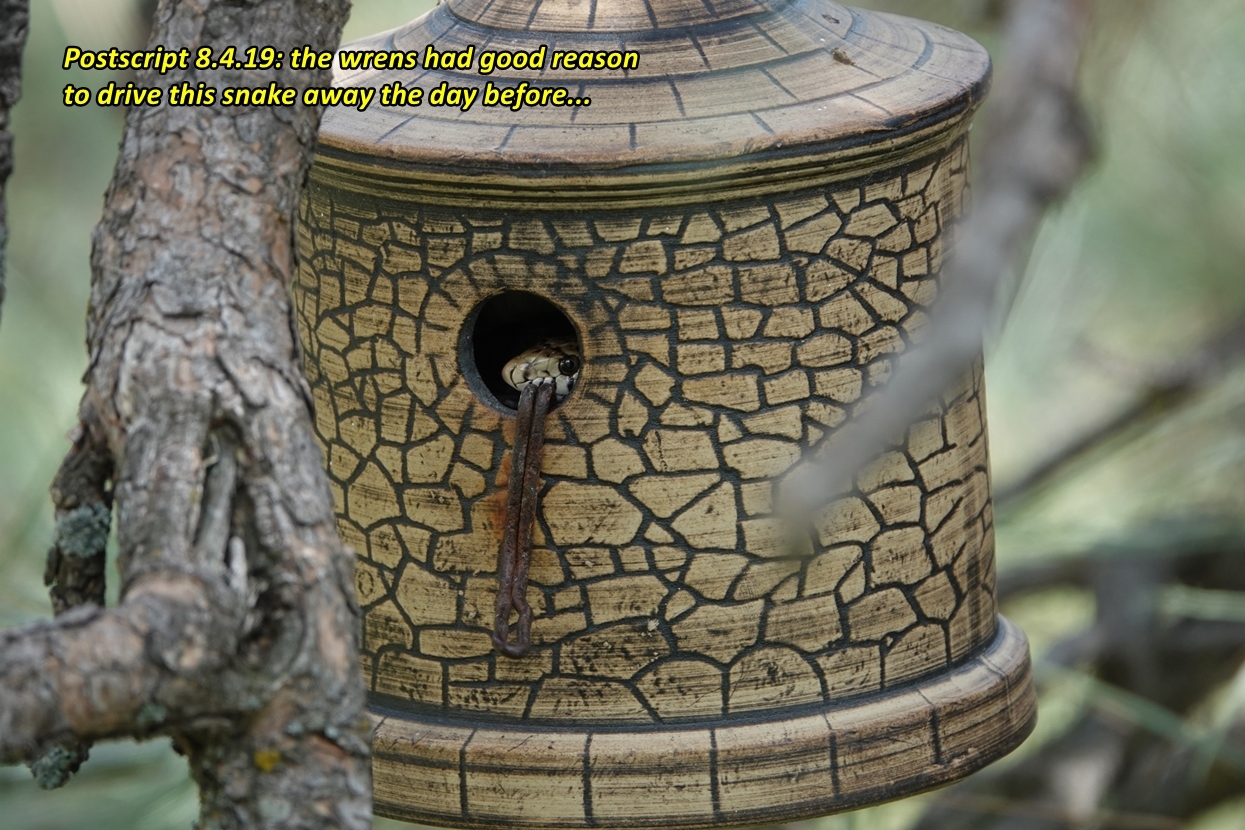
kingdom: Animalia
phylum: Chordata
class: Squamata
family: Colubridae
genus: Pituophis
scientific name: Pituophis catenifer
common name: Gopher snake
